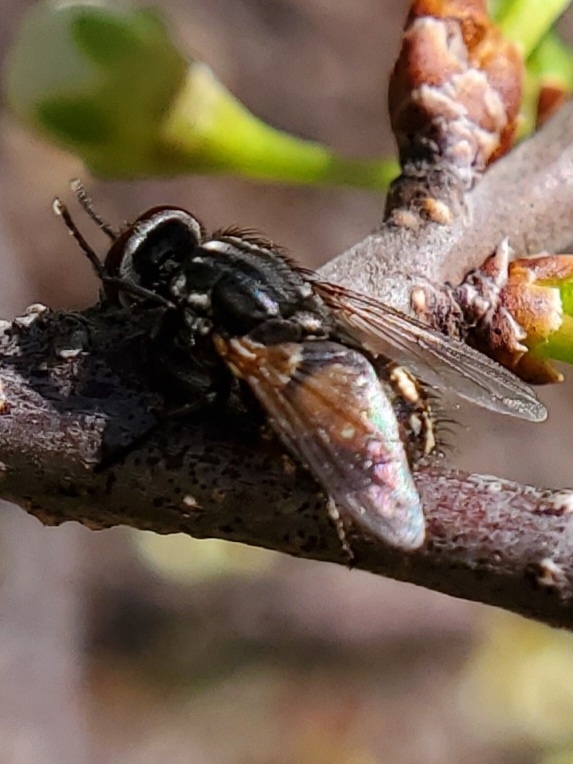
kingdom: Animalia
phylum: Arthropoda
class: Insecta
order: Diptera
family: Muscidae
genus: Musca
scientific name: Musca autumnalis
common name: Face fly
